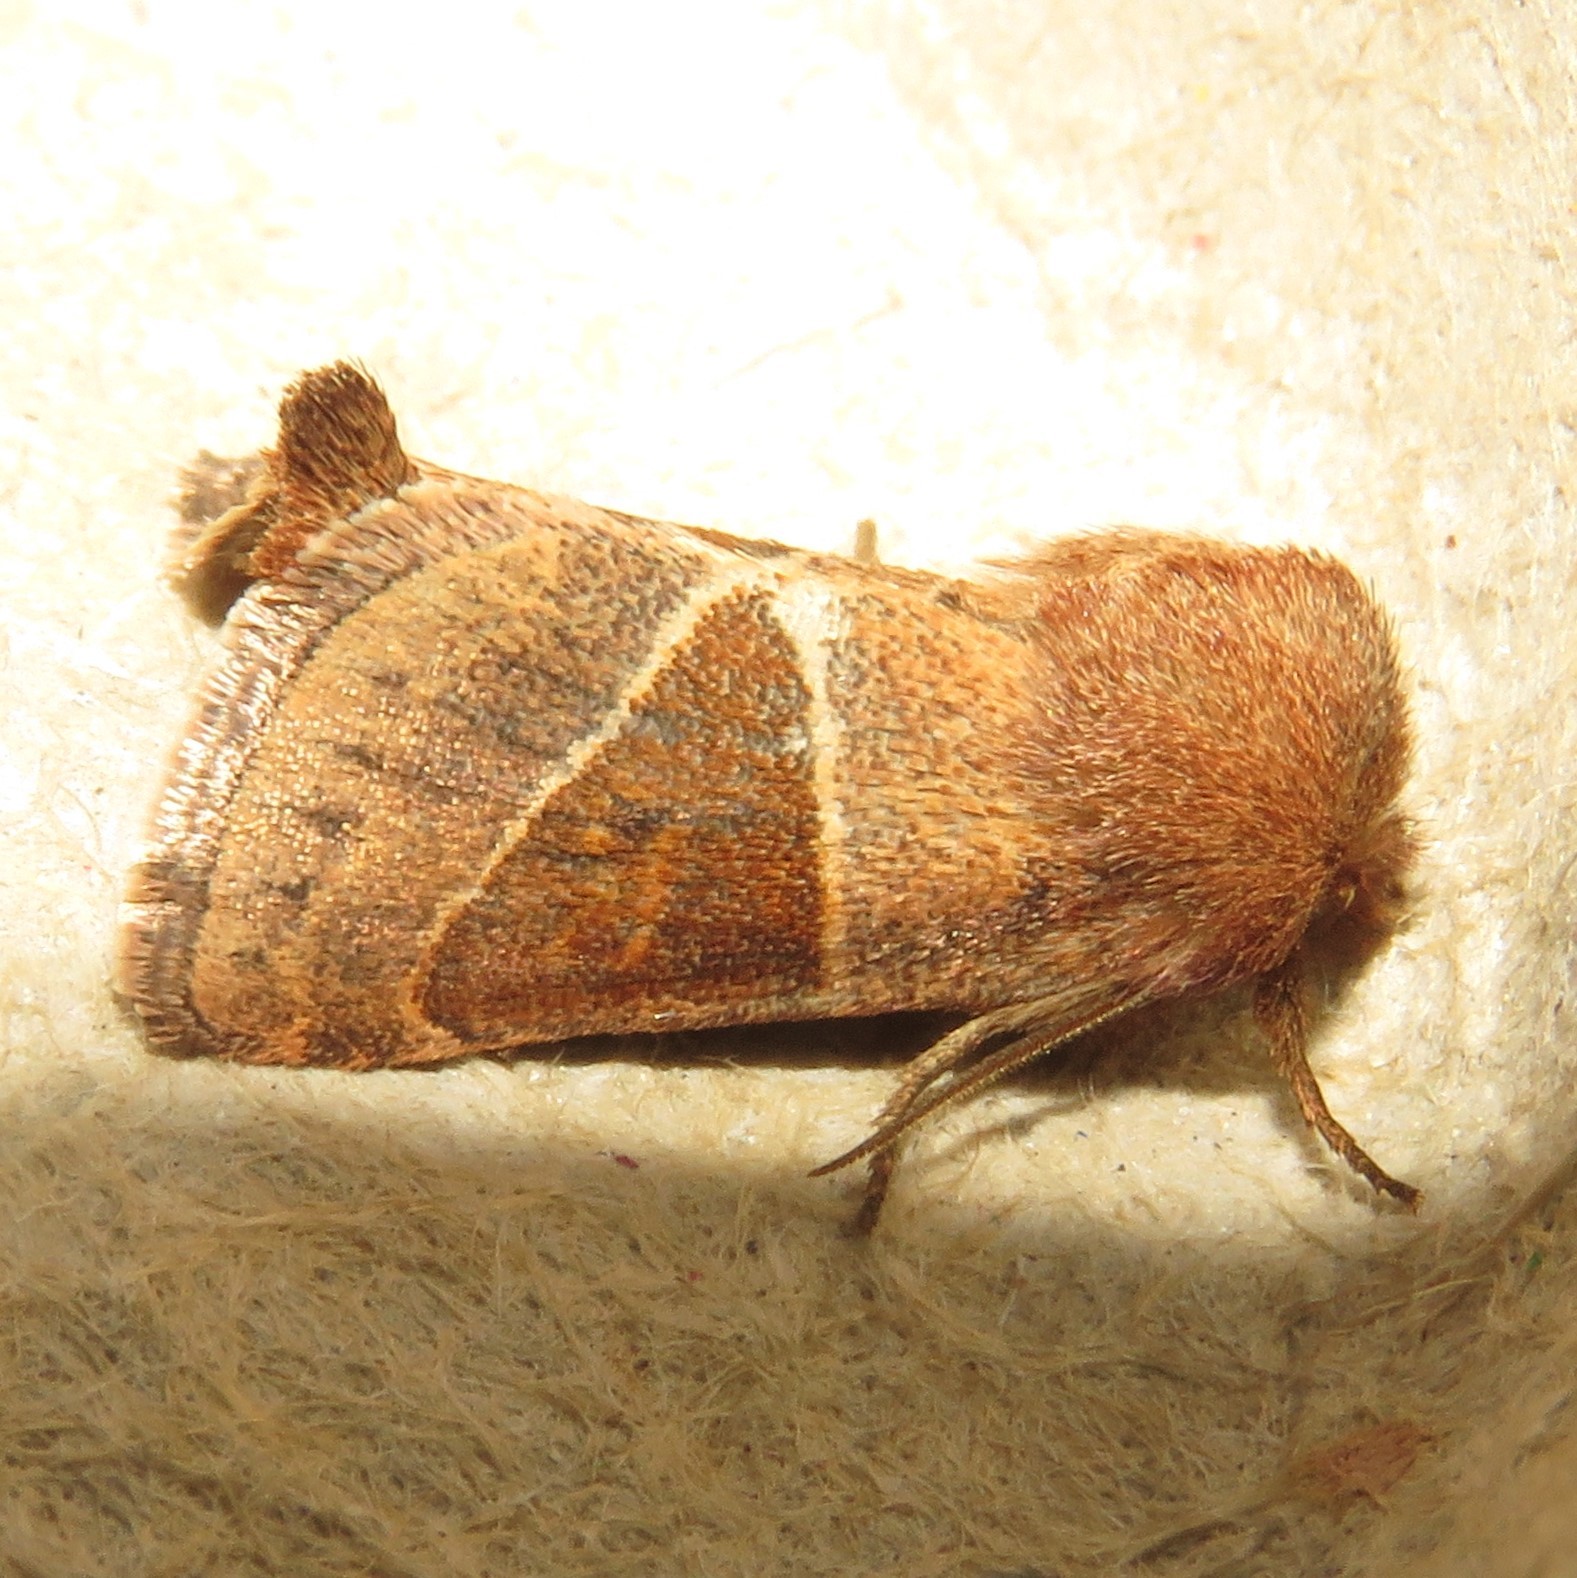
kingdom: Animalia
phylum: Arthropoda
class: Insecta
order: Lepidoptera
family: Noctuidae
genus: Lemmeria
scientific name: Lemmeria digitalis
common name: Fingered lemmeria moth
